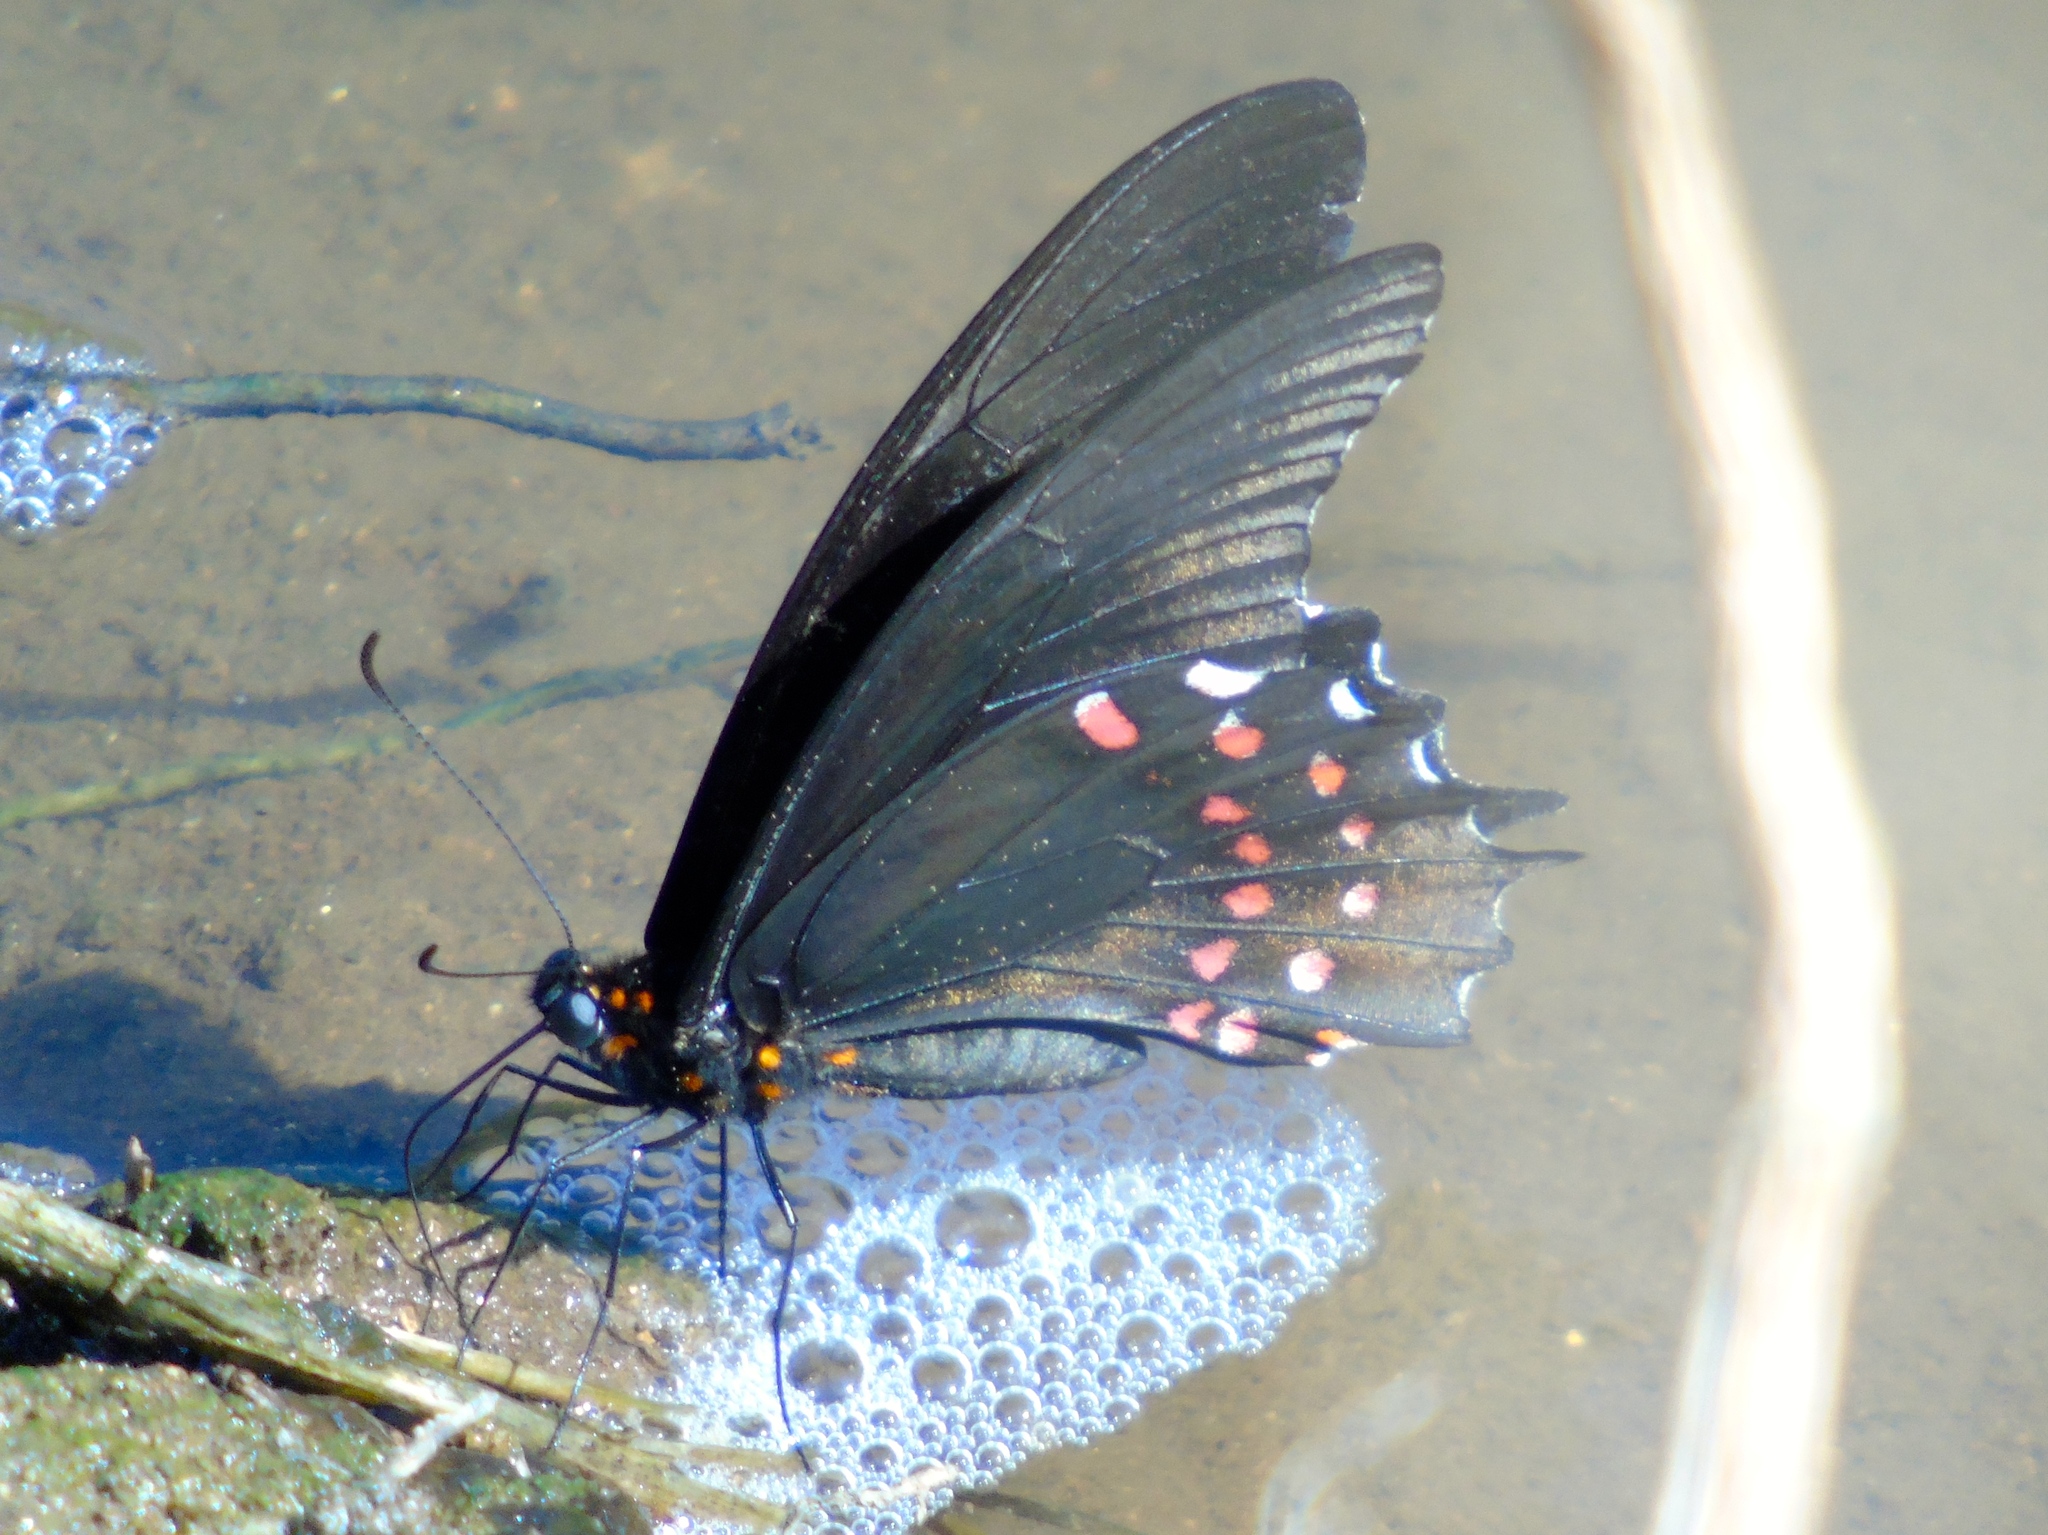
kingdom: Animalia
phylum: Arthropoda
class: Insecta
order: Lepidoptera
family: Papilionidae
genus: Heraclides
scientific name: Heraclides rogeri
